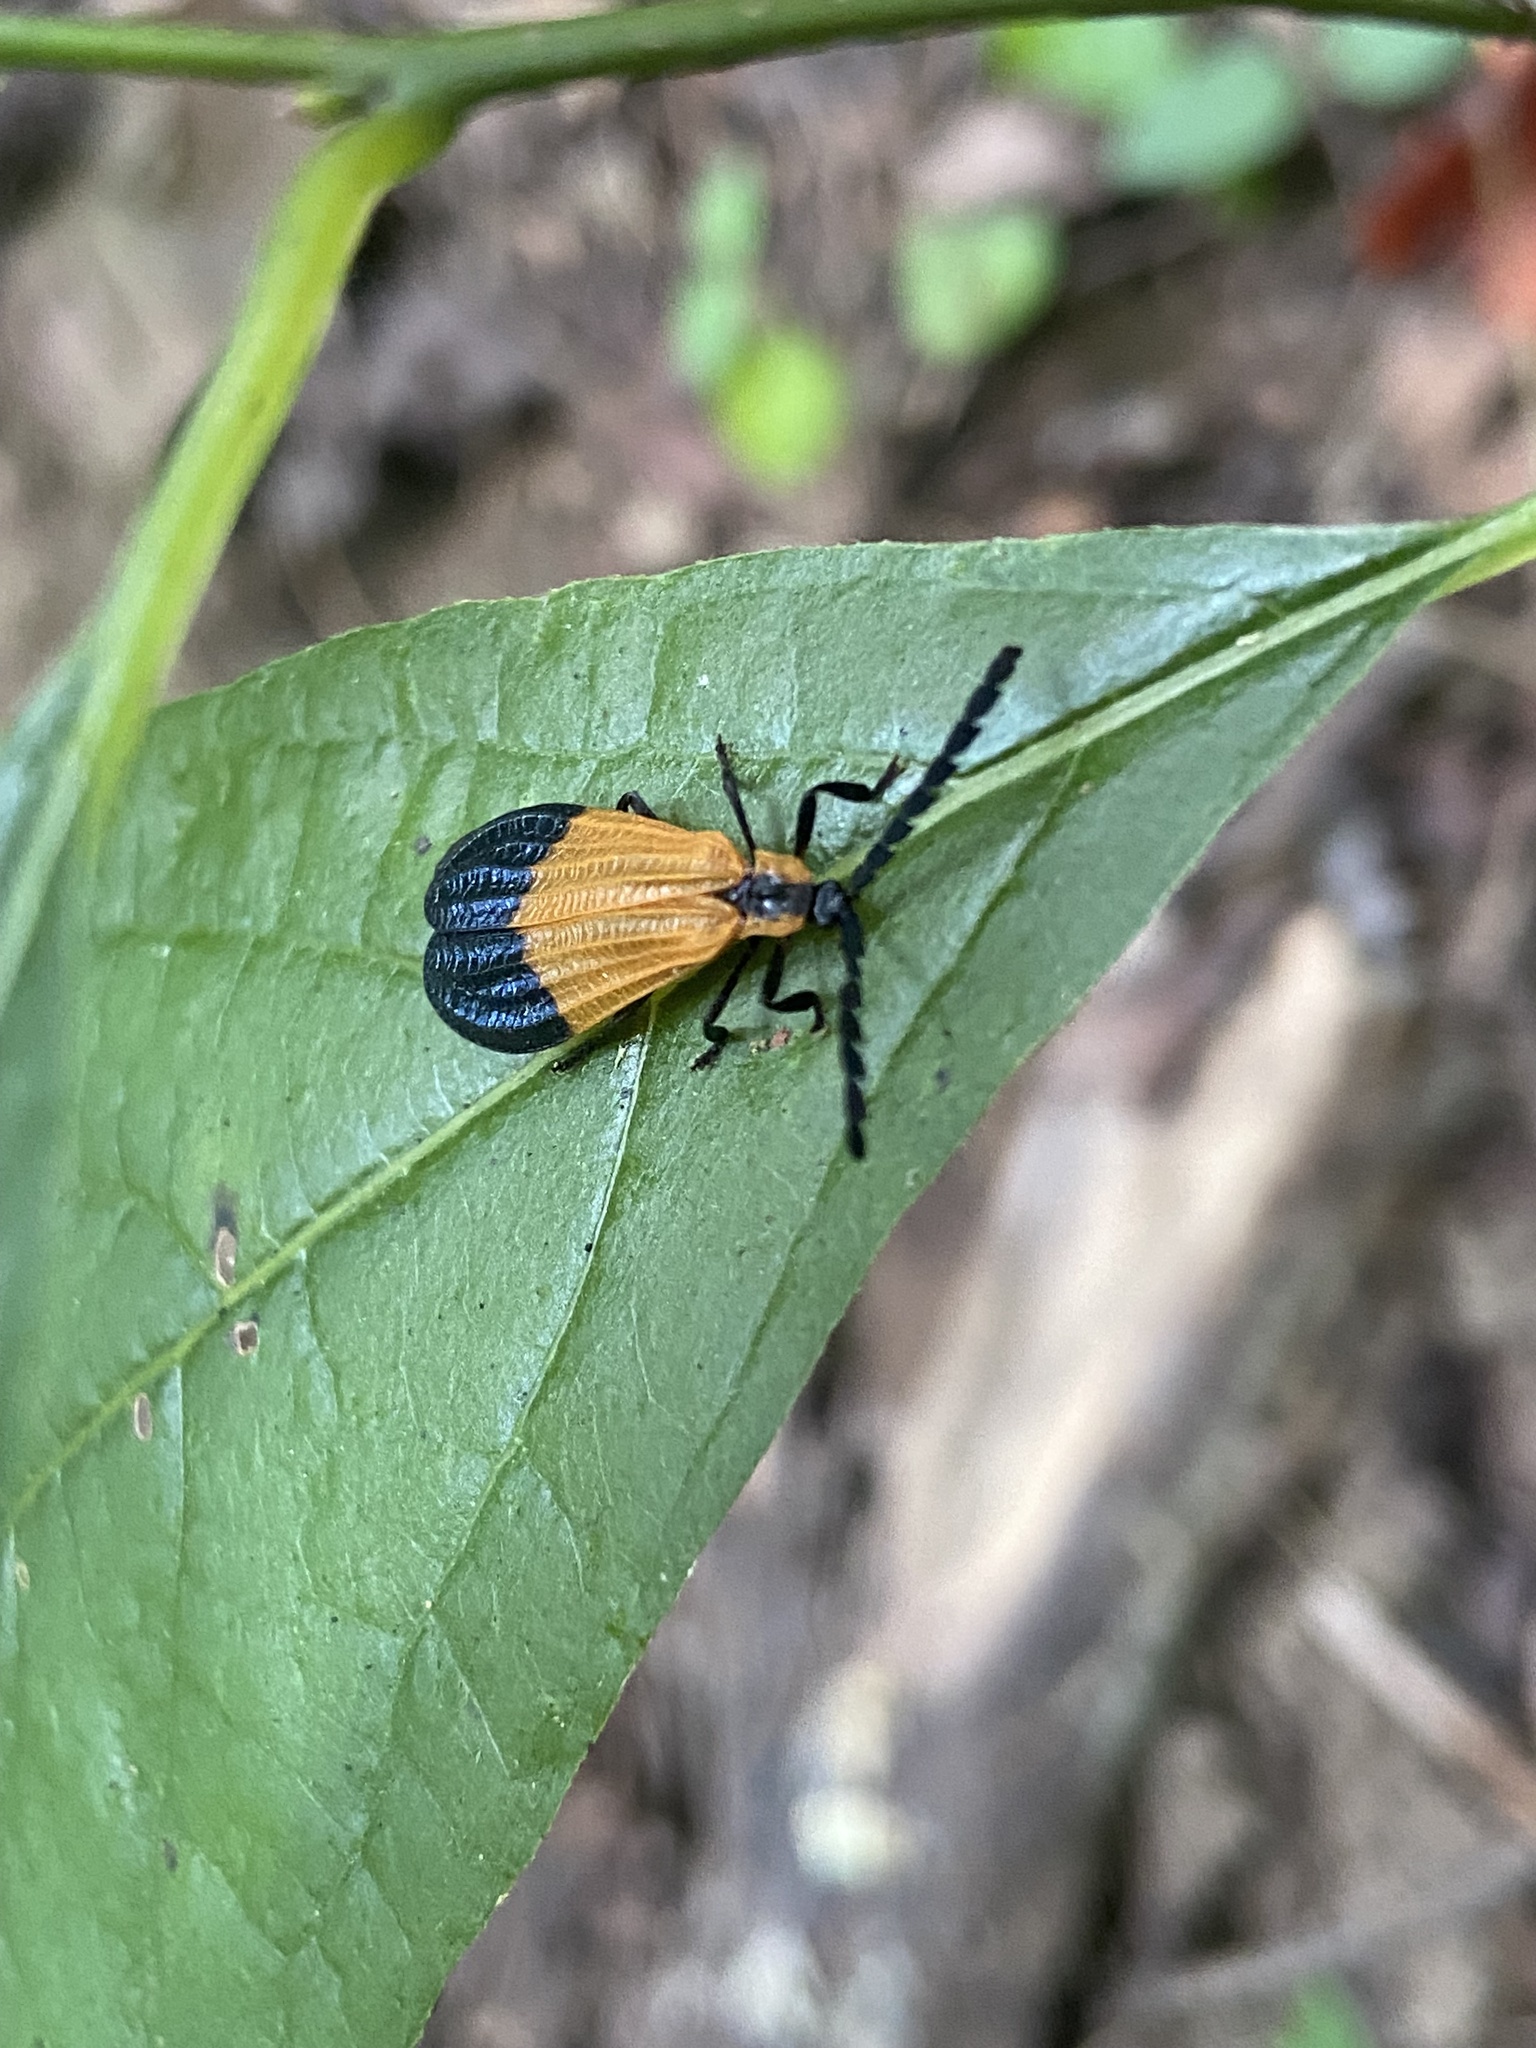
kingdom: Animalia
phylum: Arthropoda
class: Insecta
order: Coleoptera
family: Lycidae
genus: Calopteron
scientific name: Calopteron terminale
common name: End band net-winged beetle
